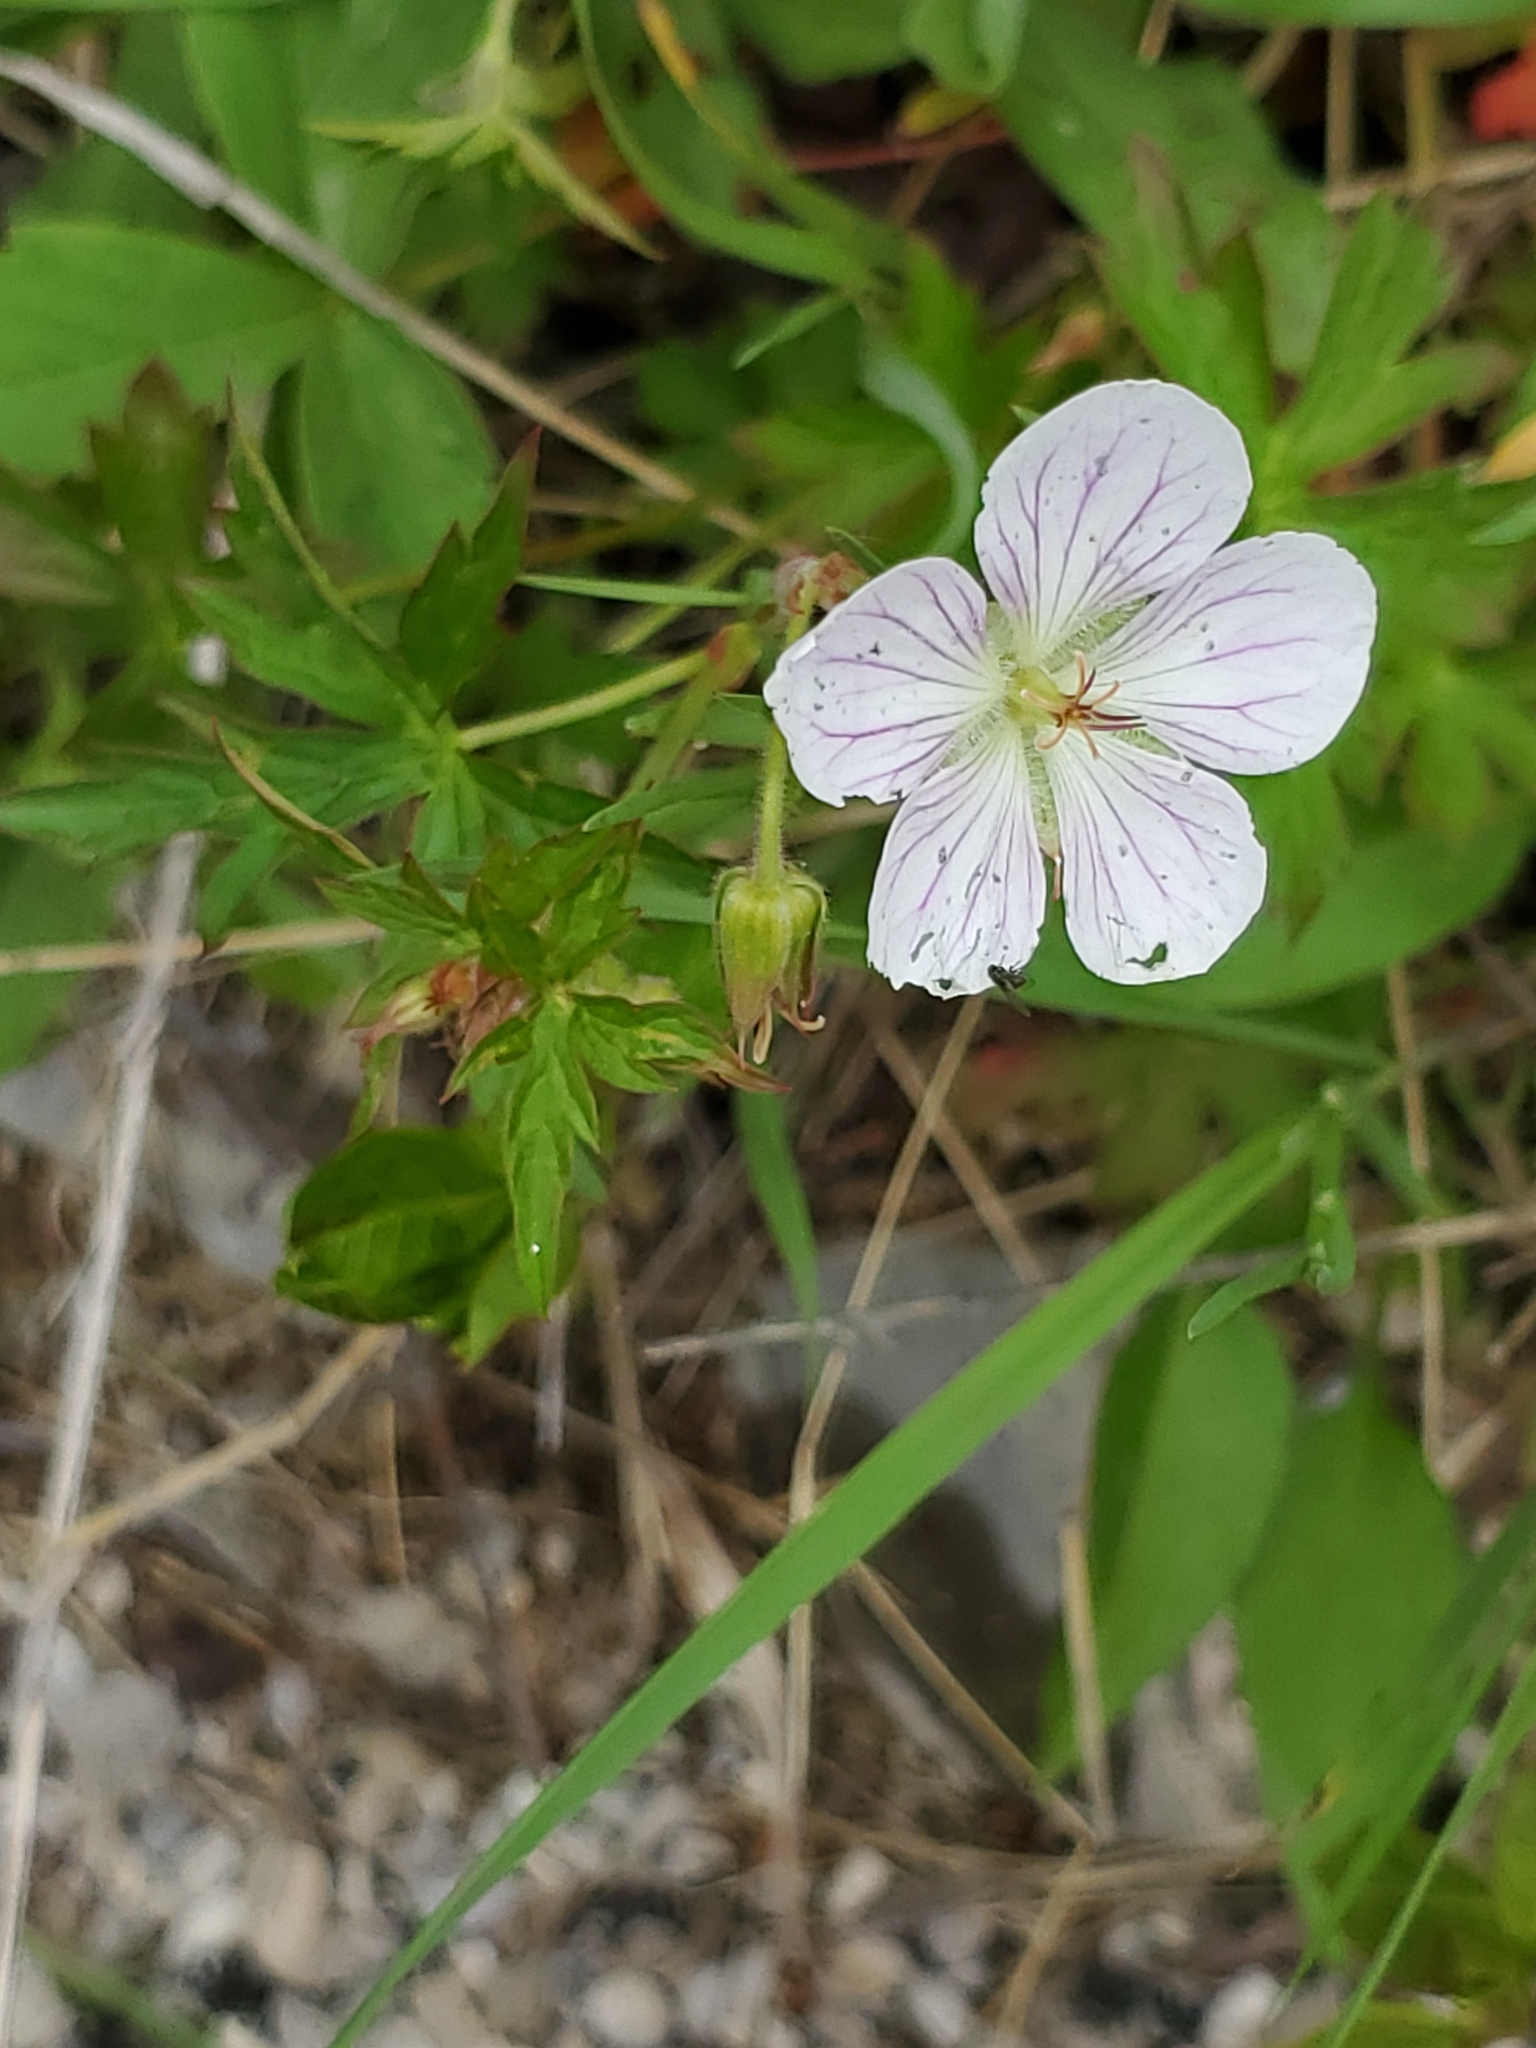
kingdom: Plantae
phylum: Tracheophyta
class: Magnoliopsida
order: Geraniales
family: Geraniaceae
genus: Geranium
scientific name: Geranium richardsonii
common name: Richardson's crane's-bill
